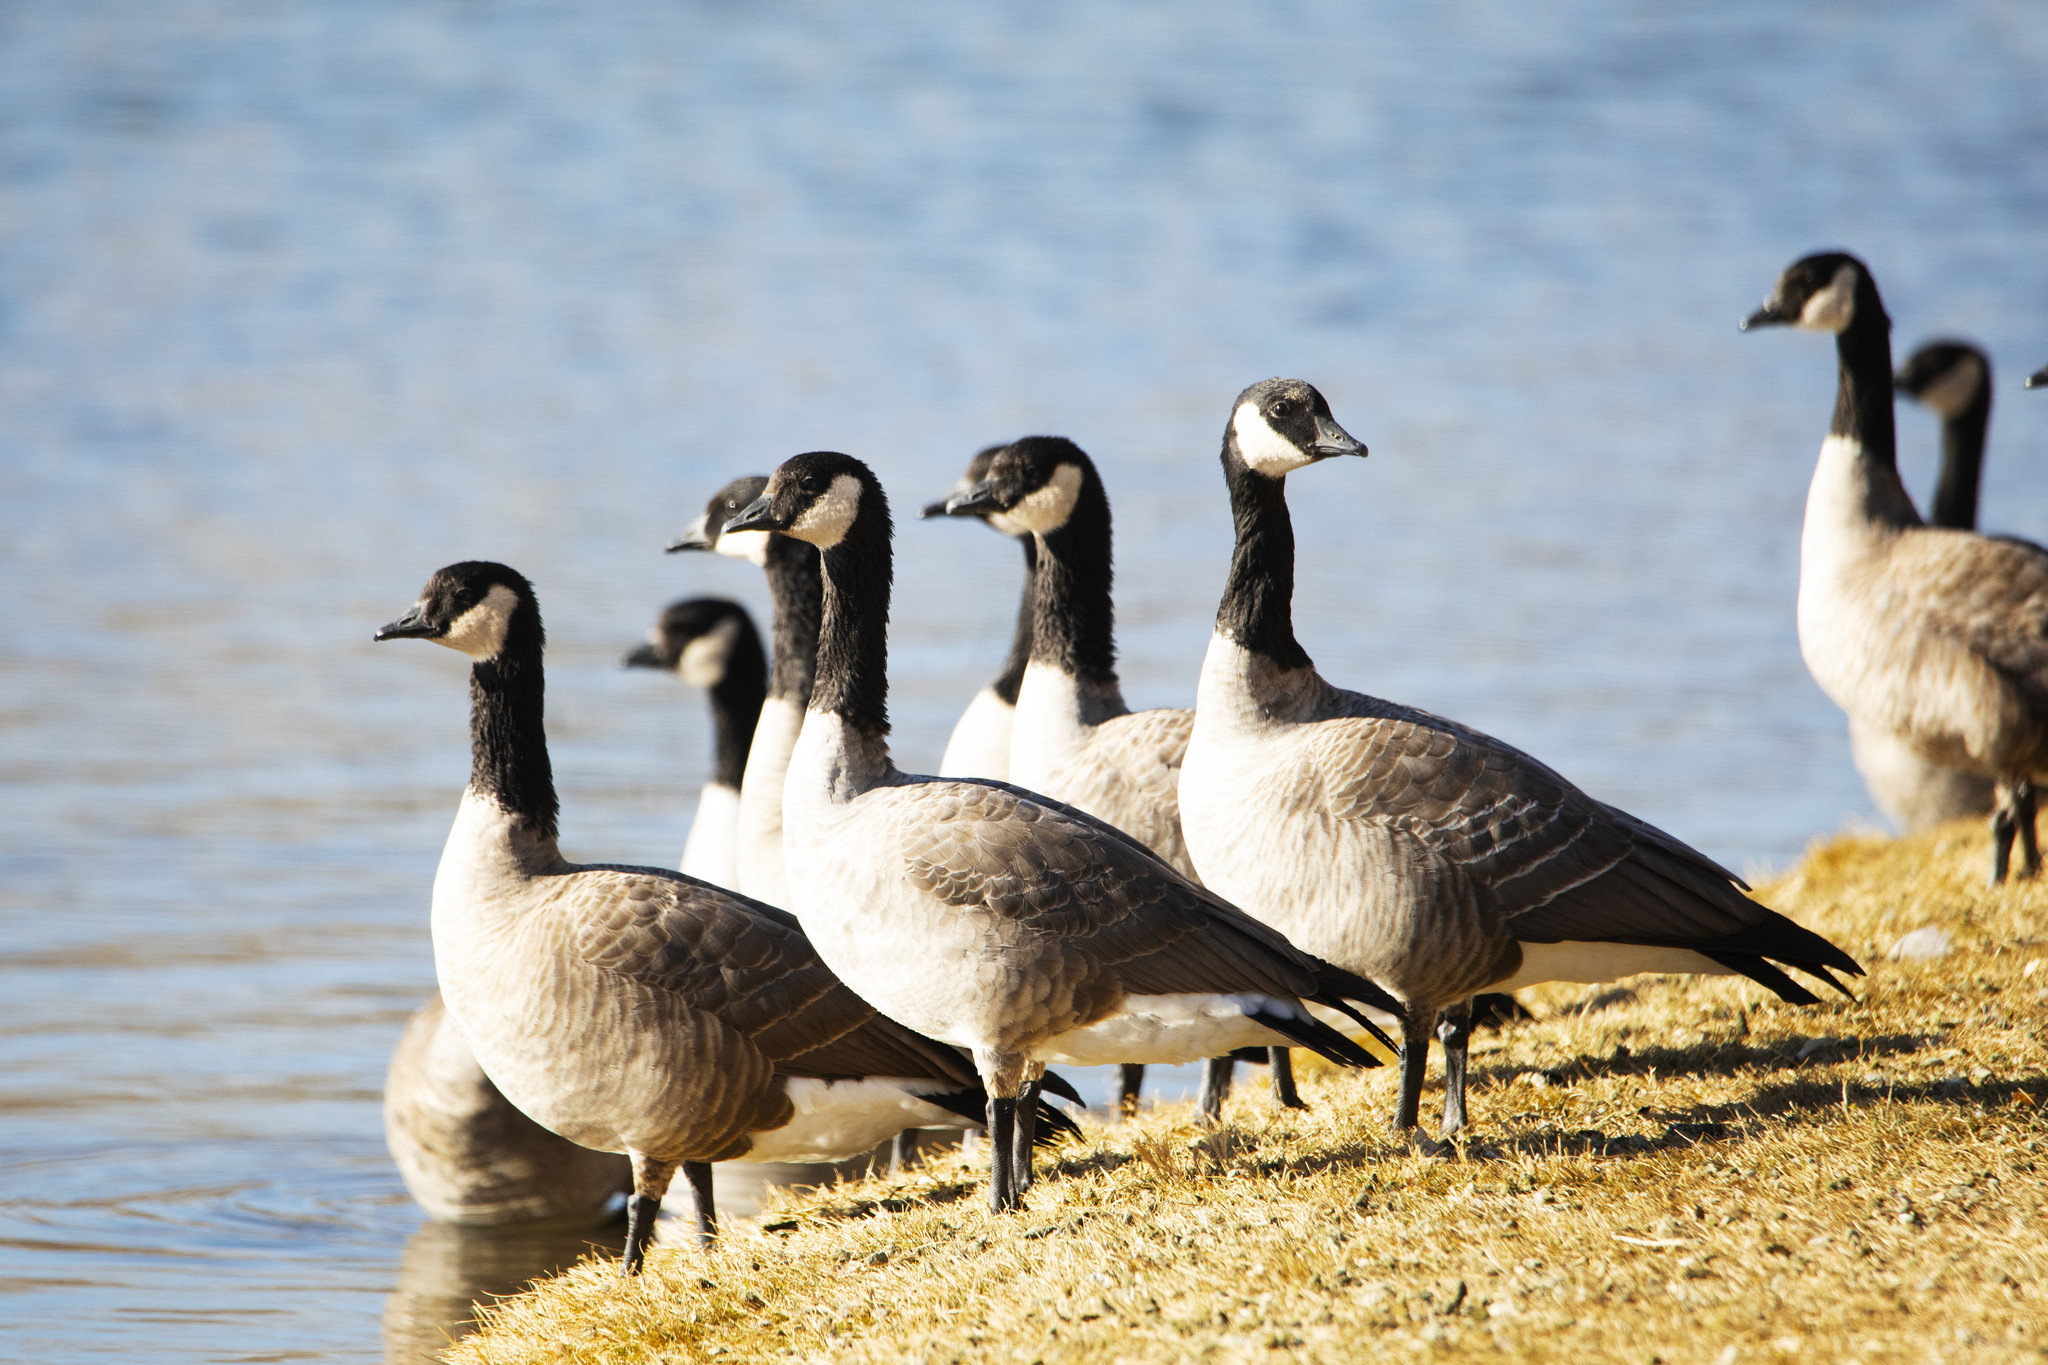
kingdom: Animalia
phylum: Chordata
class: Aves
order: Anseriformes
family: Anatidae
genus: Branta
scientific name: Branta canadensis
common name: Canada goose
